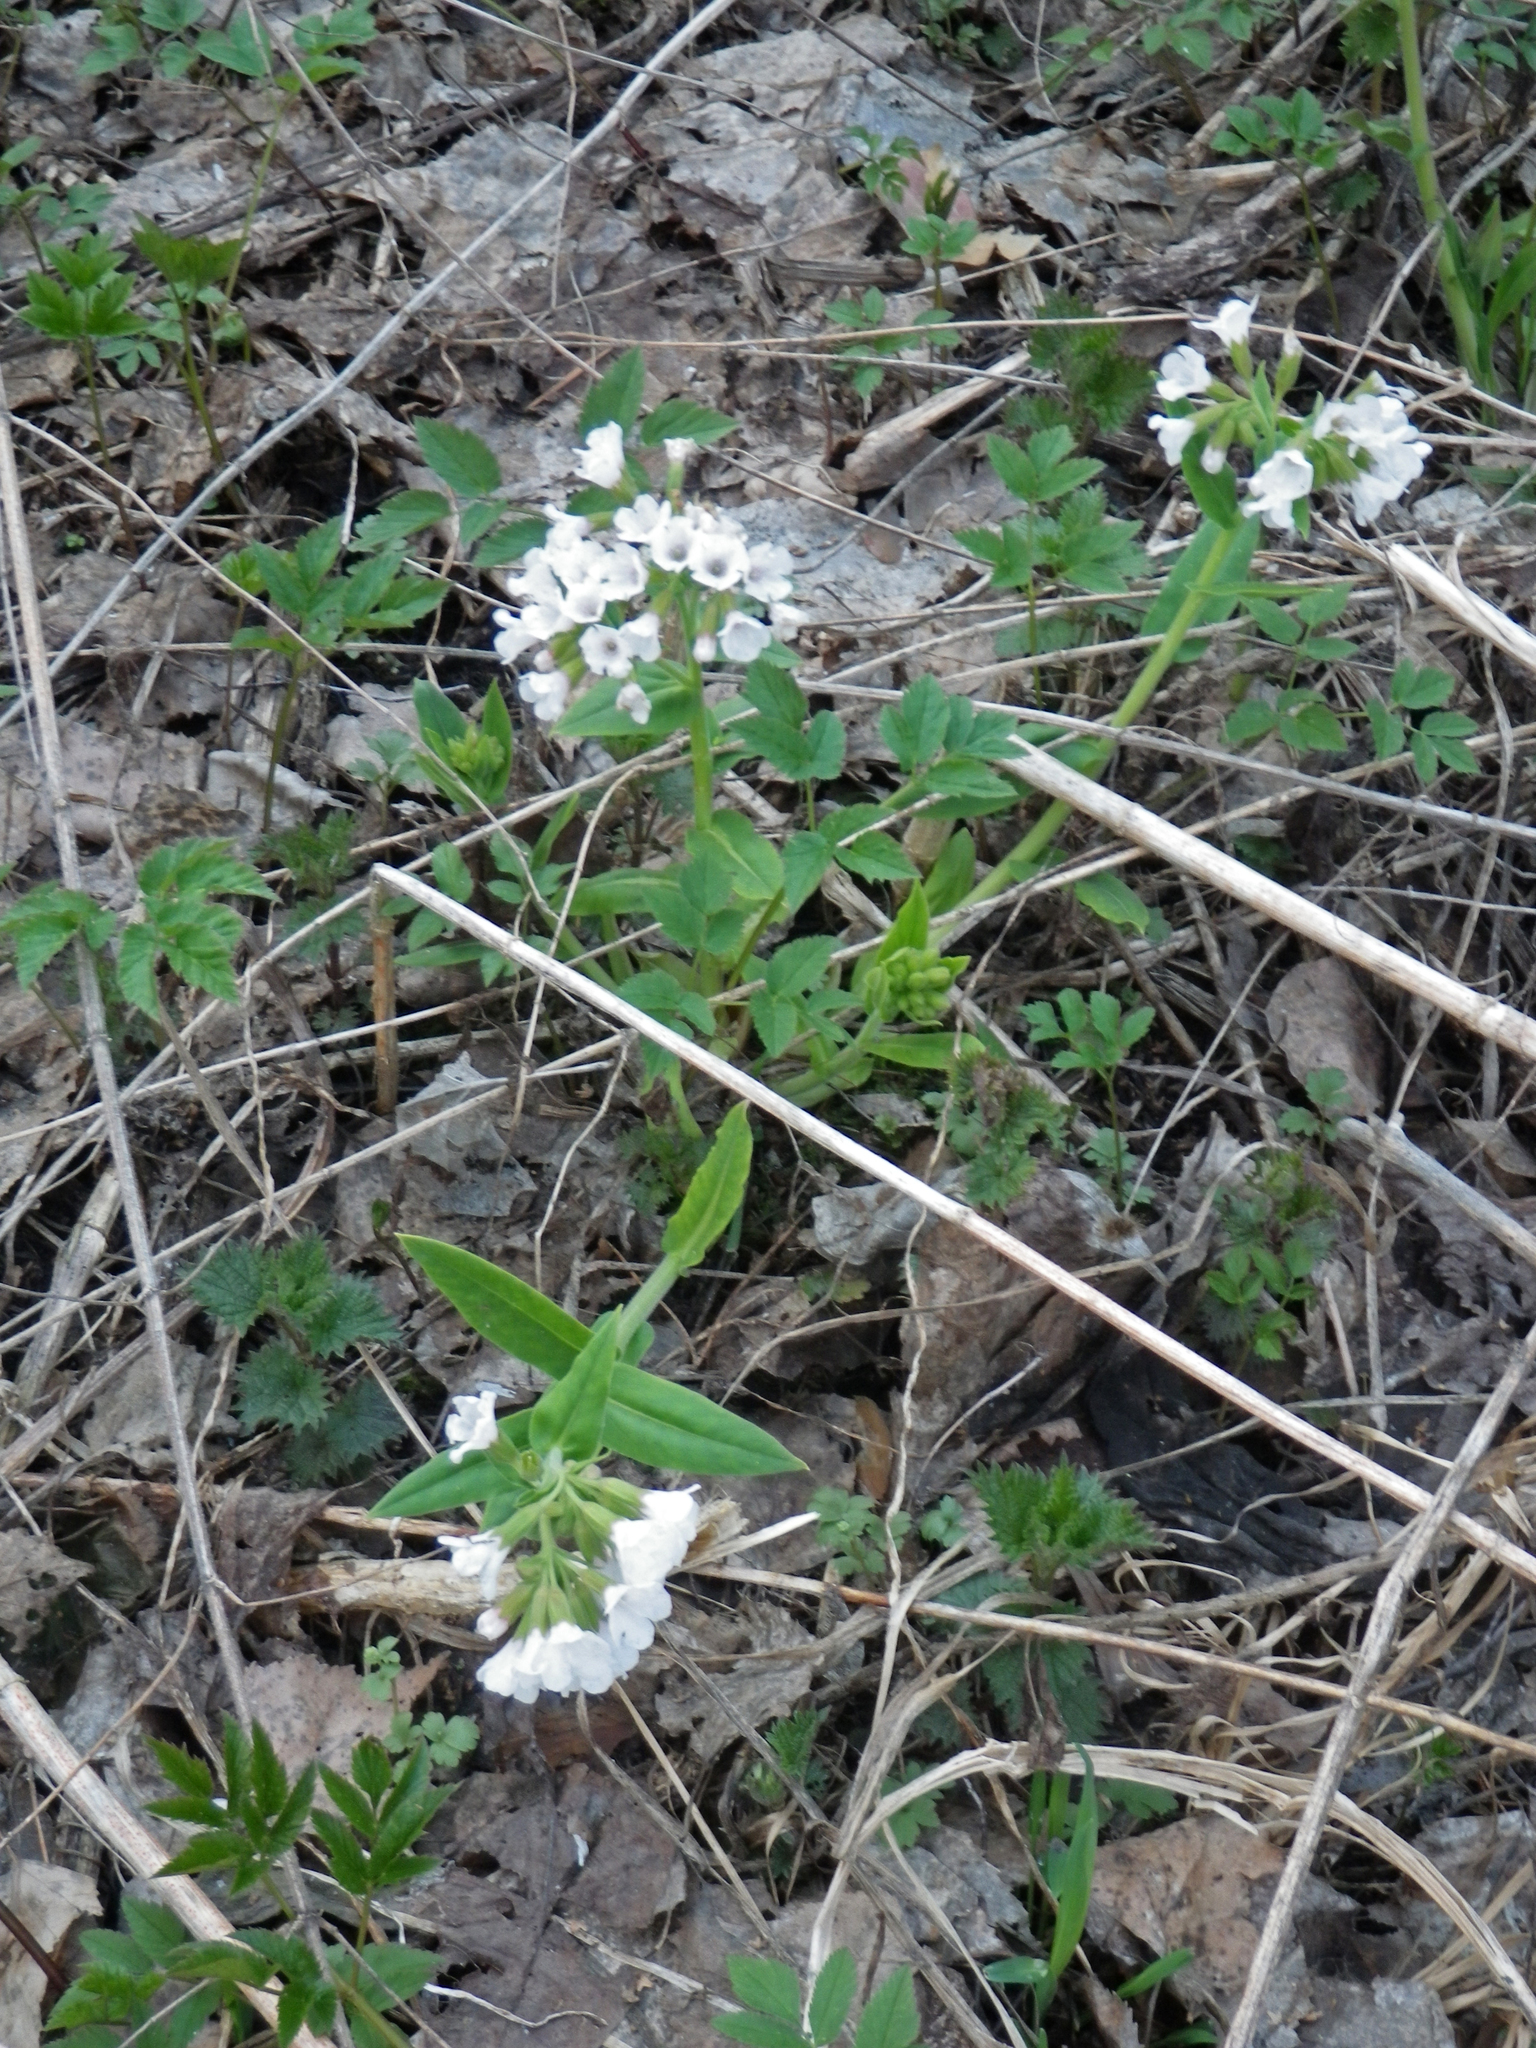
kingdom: Plantae
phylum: Tracheophyta
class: Magnoliopsida
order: Boraginales
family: Boraginaceae
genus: Pulmonaria
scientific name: Pulmonaria mollis
